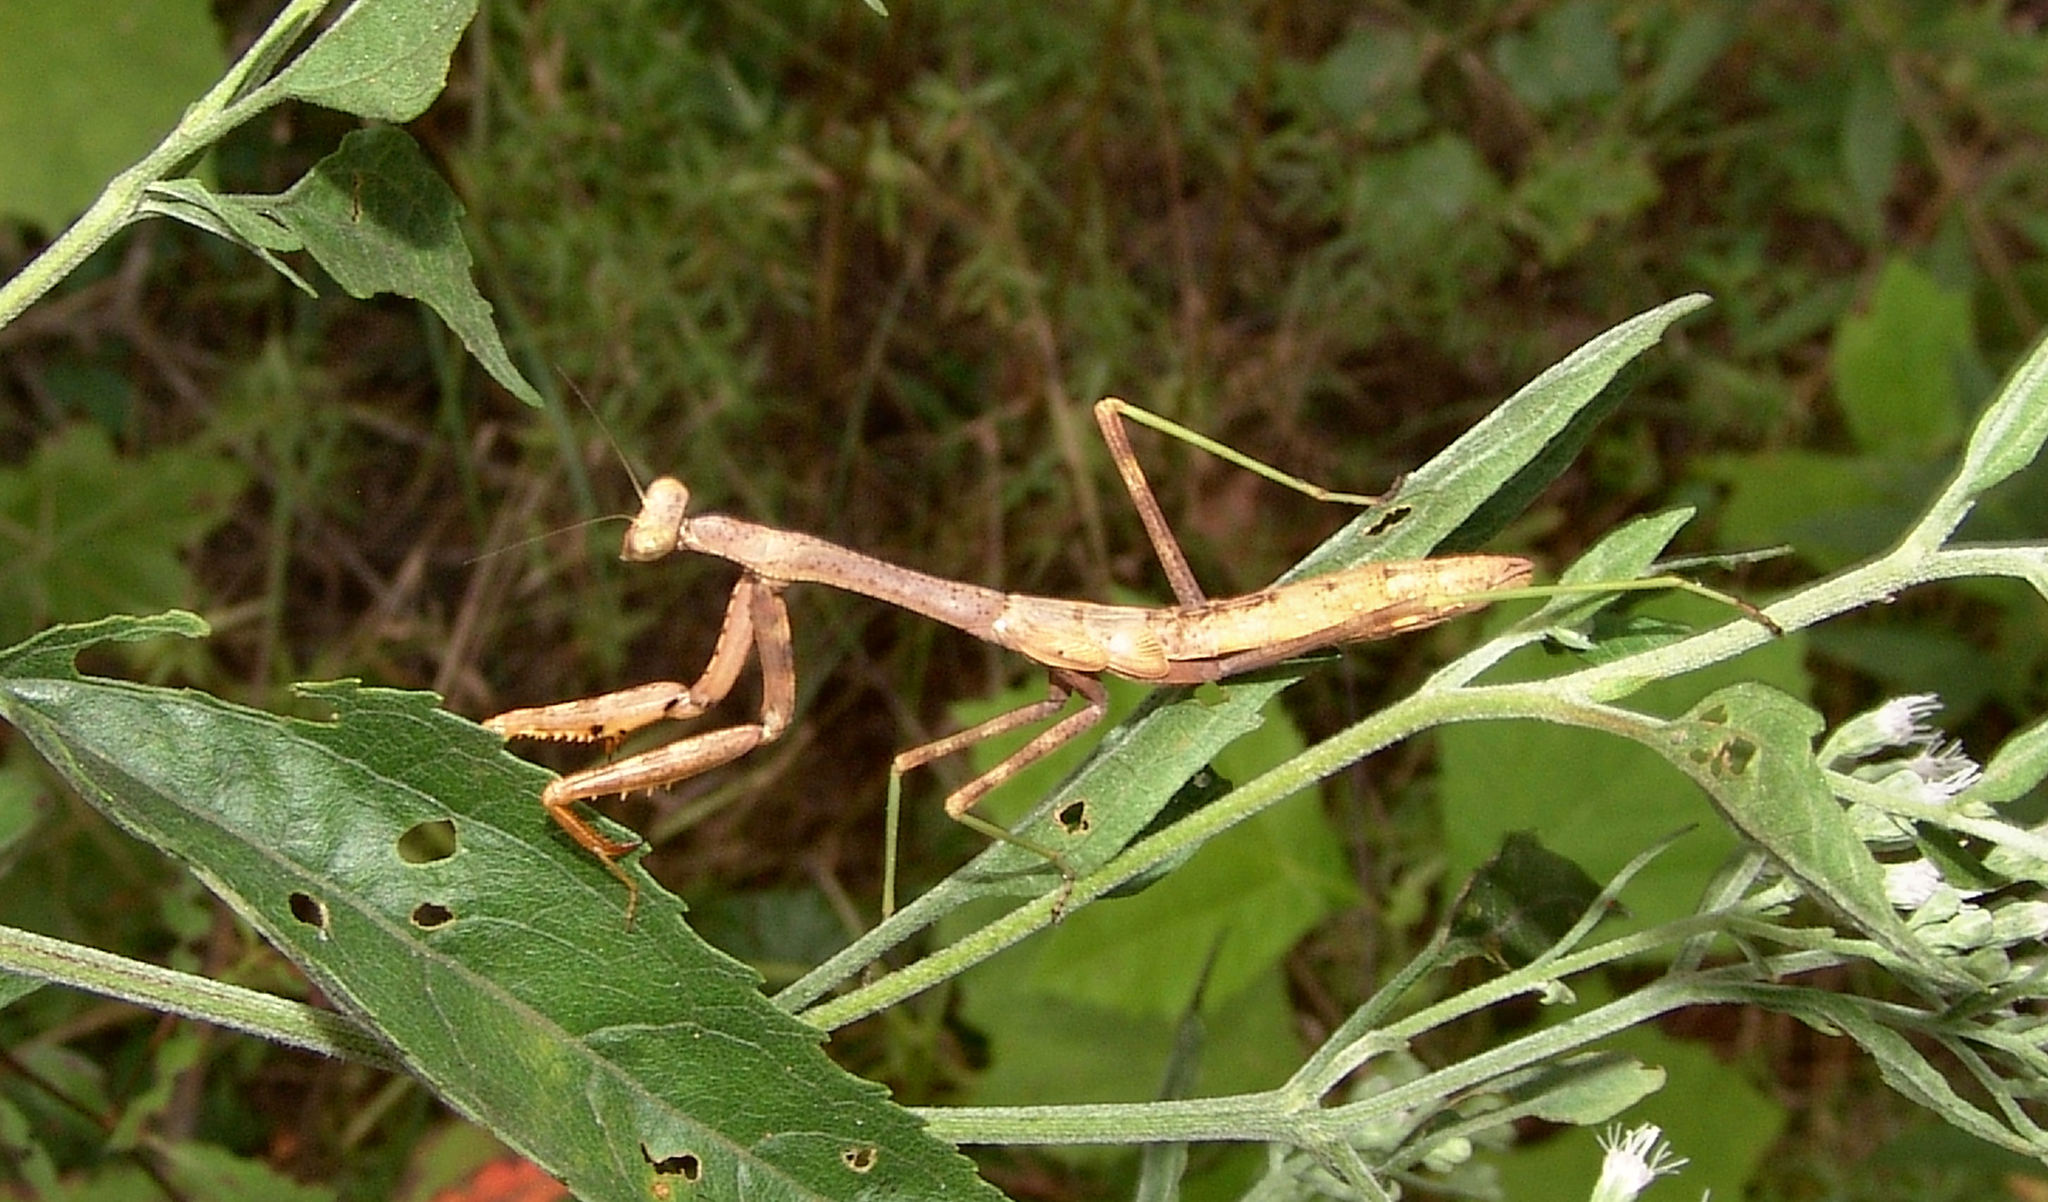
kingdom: Animalia
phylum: Arthropoda
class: Insecta
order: Mantodea
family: Mantidae
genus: Stagmomantis
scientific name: Stagmomantis carolina
